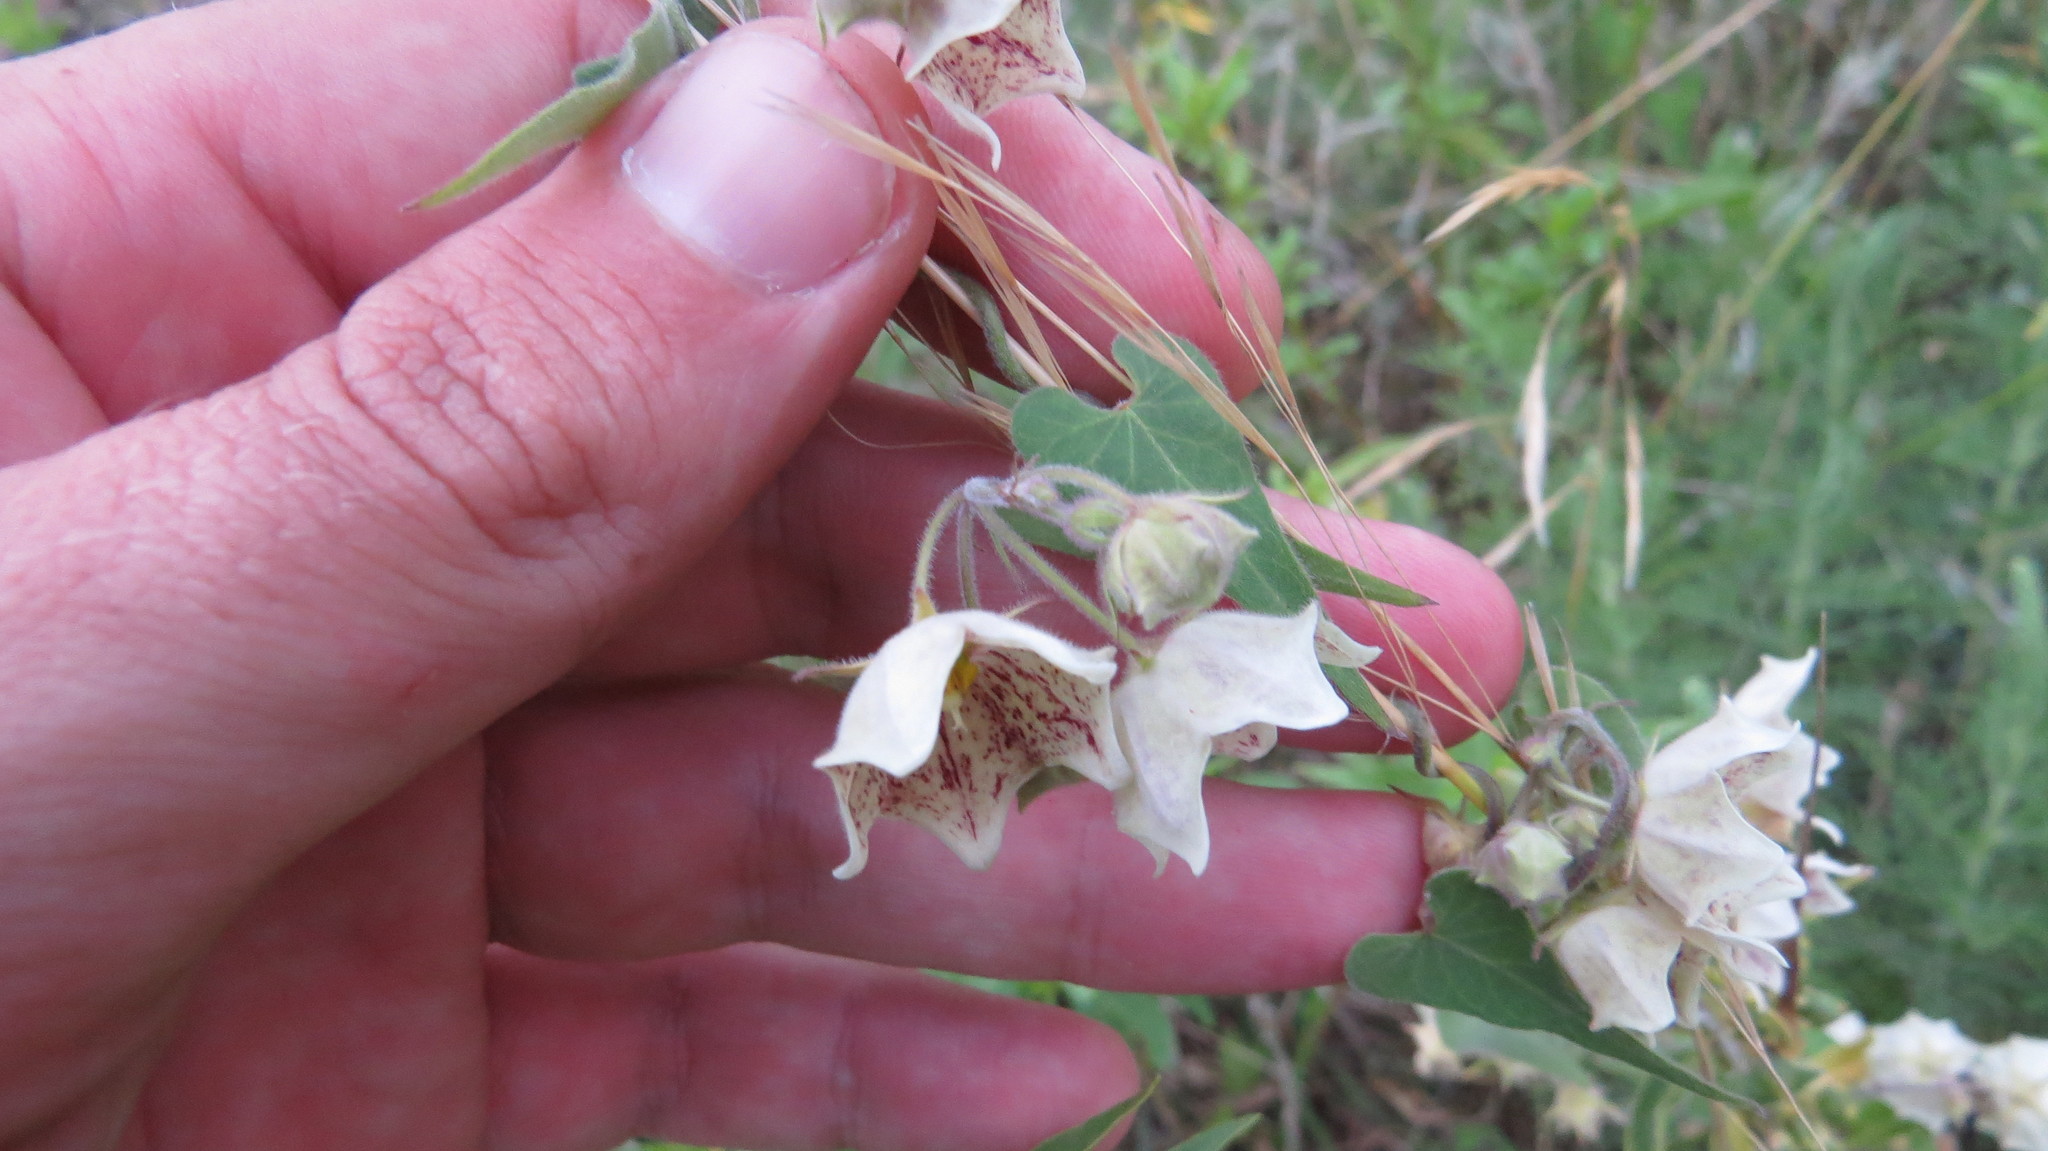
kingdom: Plantae
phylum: Tracheophyta
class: Magnoliopsida
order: Gentianales
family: Apocynaceae
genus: Philibertia
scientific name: Philibertia gilliesii
